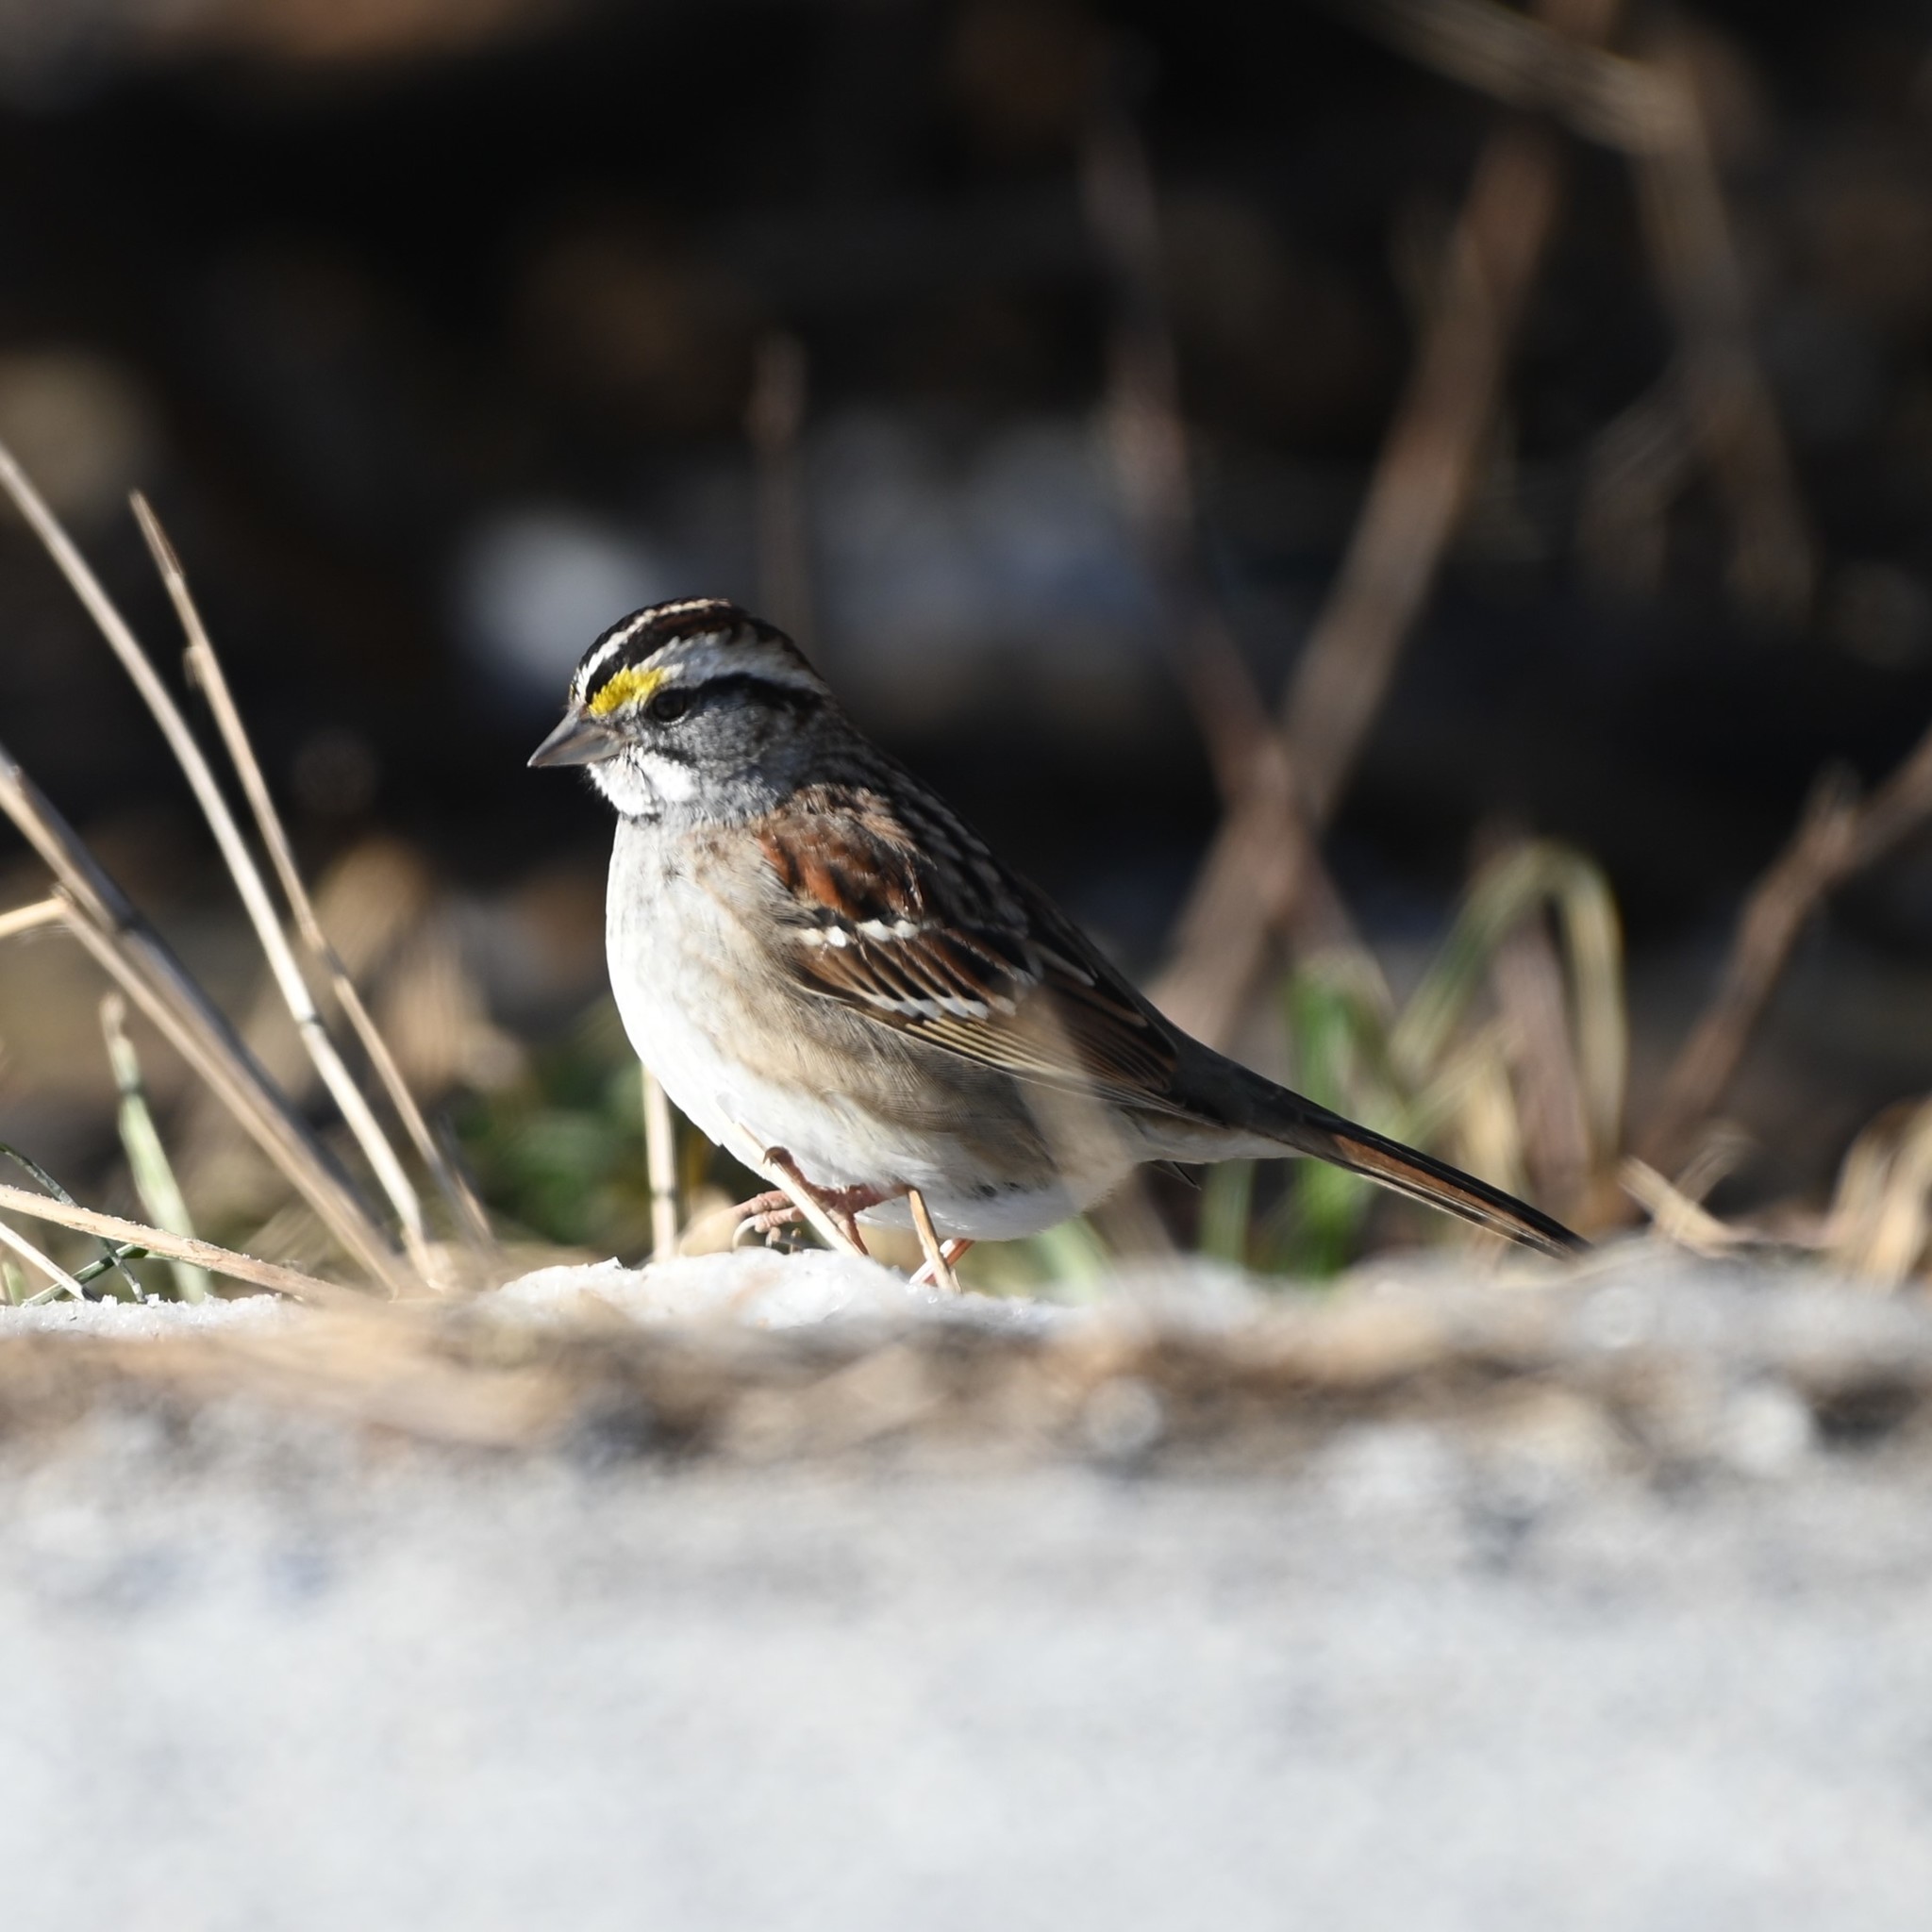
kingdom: Animalia
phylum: Chordata
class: Aves
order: Passeriformes
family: Passerellidae
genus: Zonotrichia
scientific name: Zonotrichia albicollis
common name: White-throated sparrow
